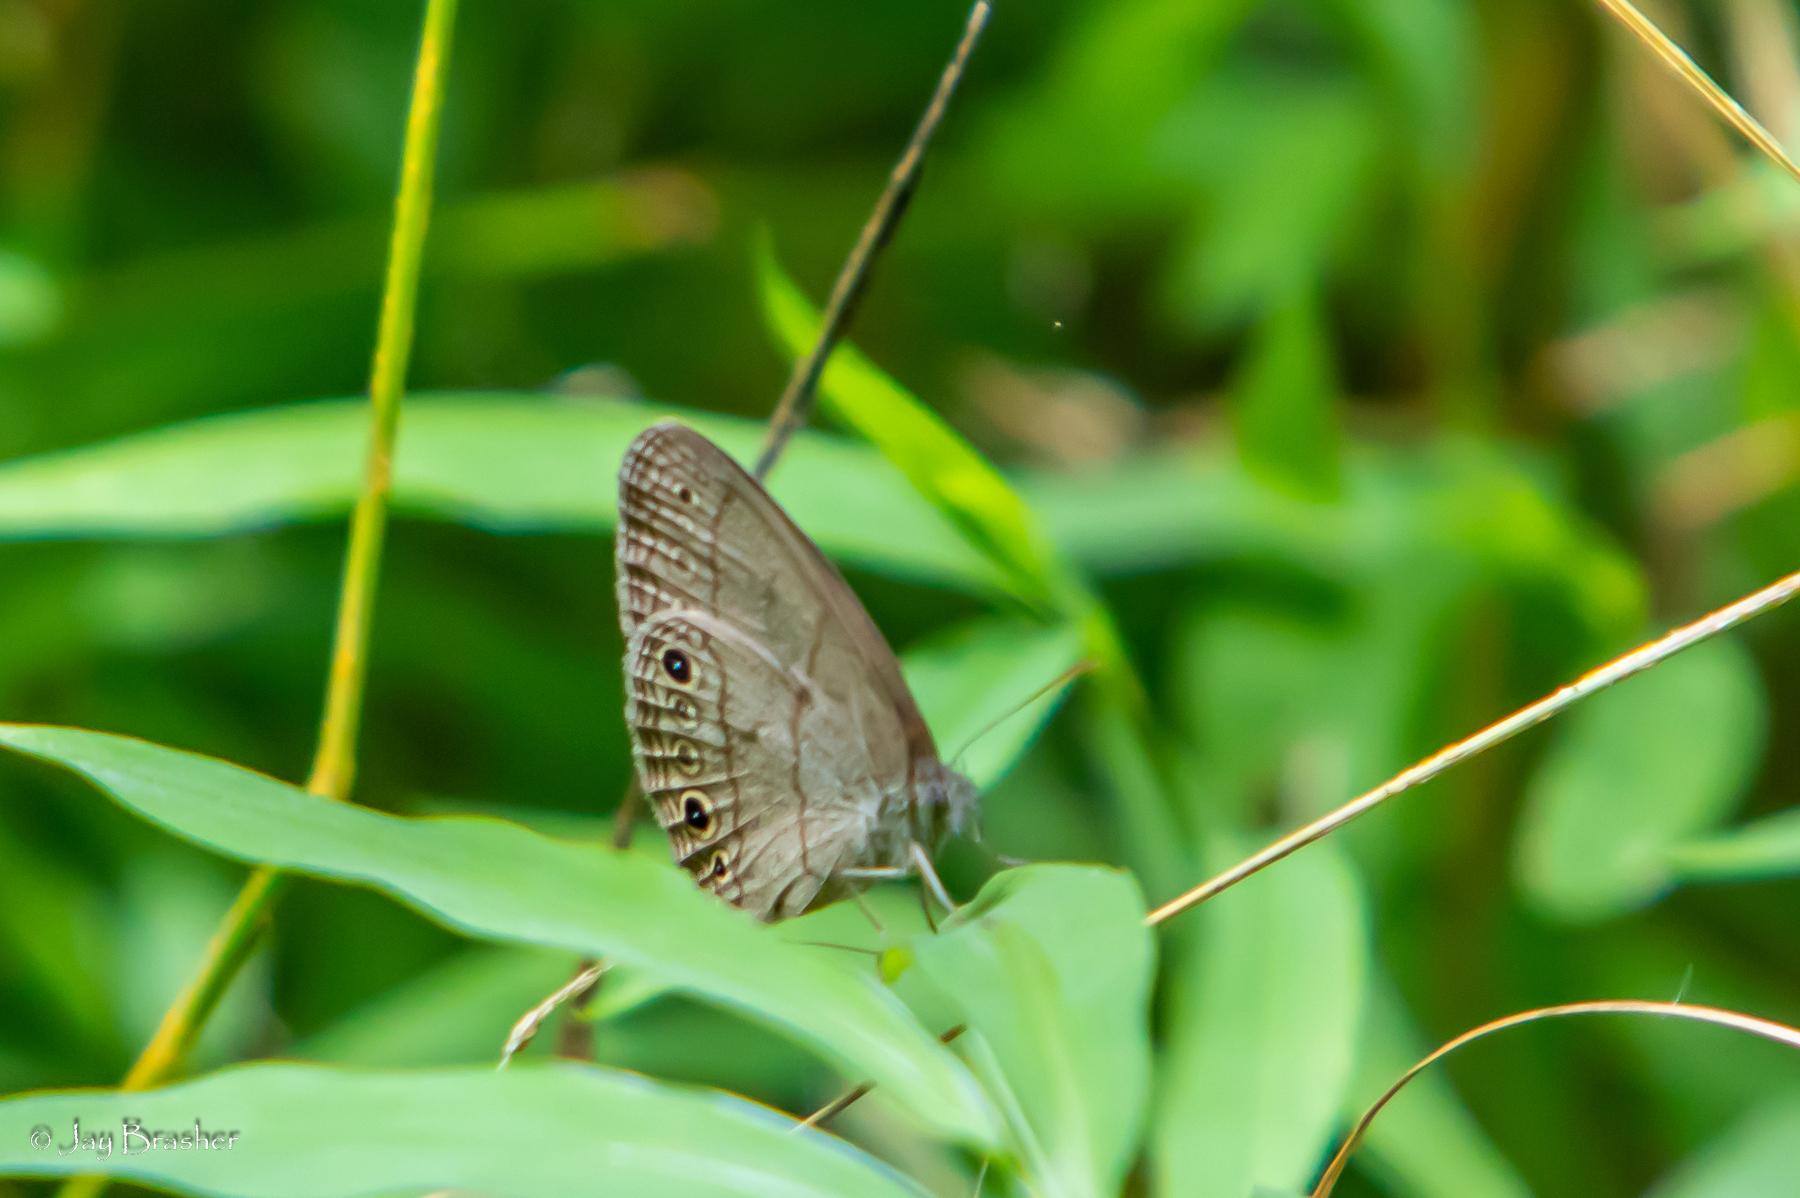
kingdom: Animalia
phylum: Arthropoda
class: Insecta
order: Lepidoptera
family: Nymphalidae
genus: Hermeuptychia
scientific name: Hermeuptychia hermes
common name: Hermes satyr
